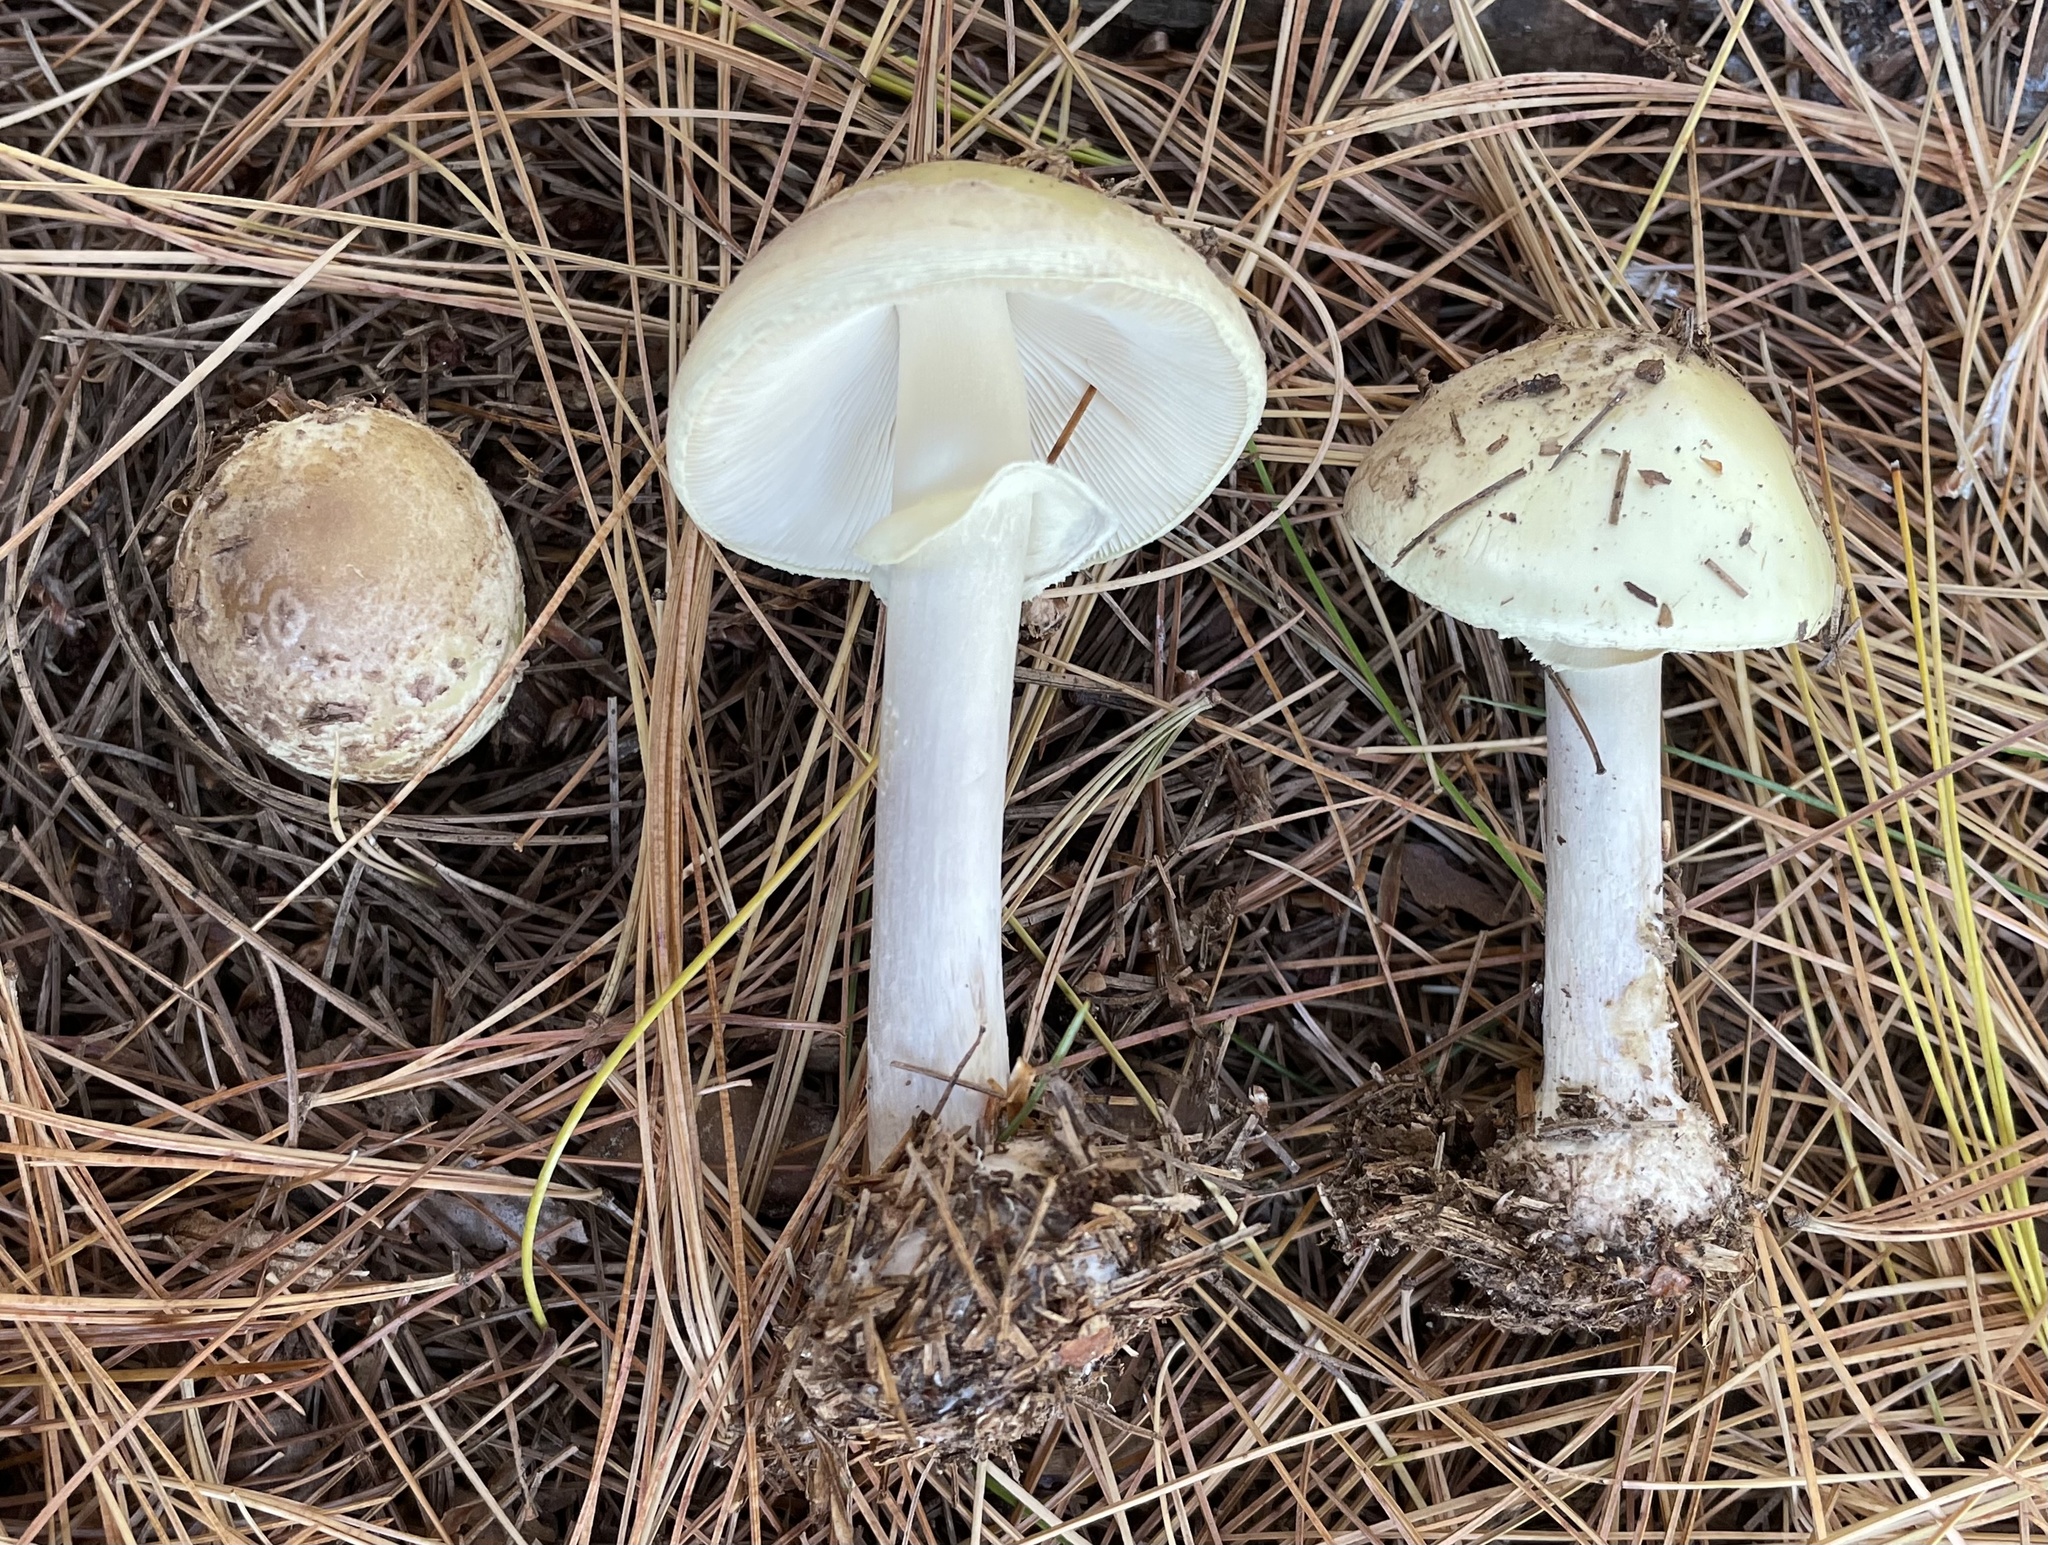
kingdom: Fungi
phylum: Basidiomycota
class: Agaricomycetes
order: Agaricales
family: Amanitaceae
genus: Amanita
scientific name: Amanita lavendula
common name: Coker's lavender staining amanita
